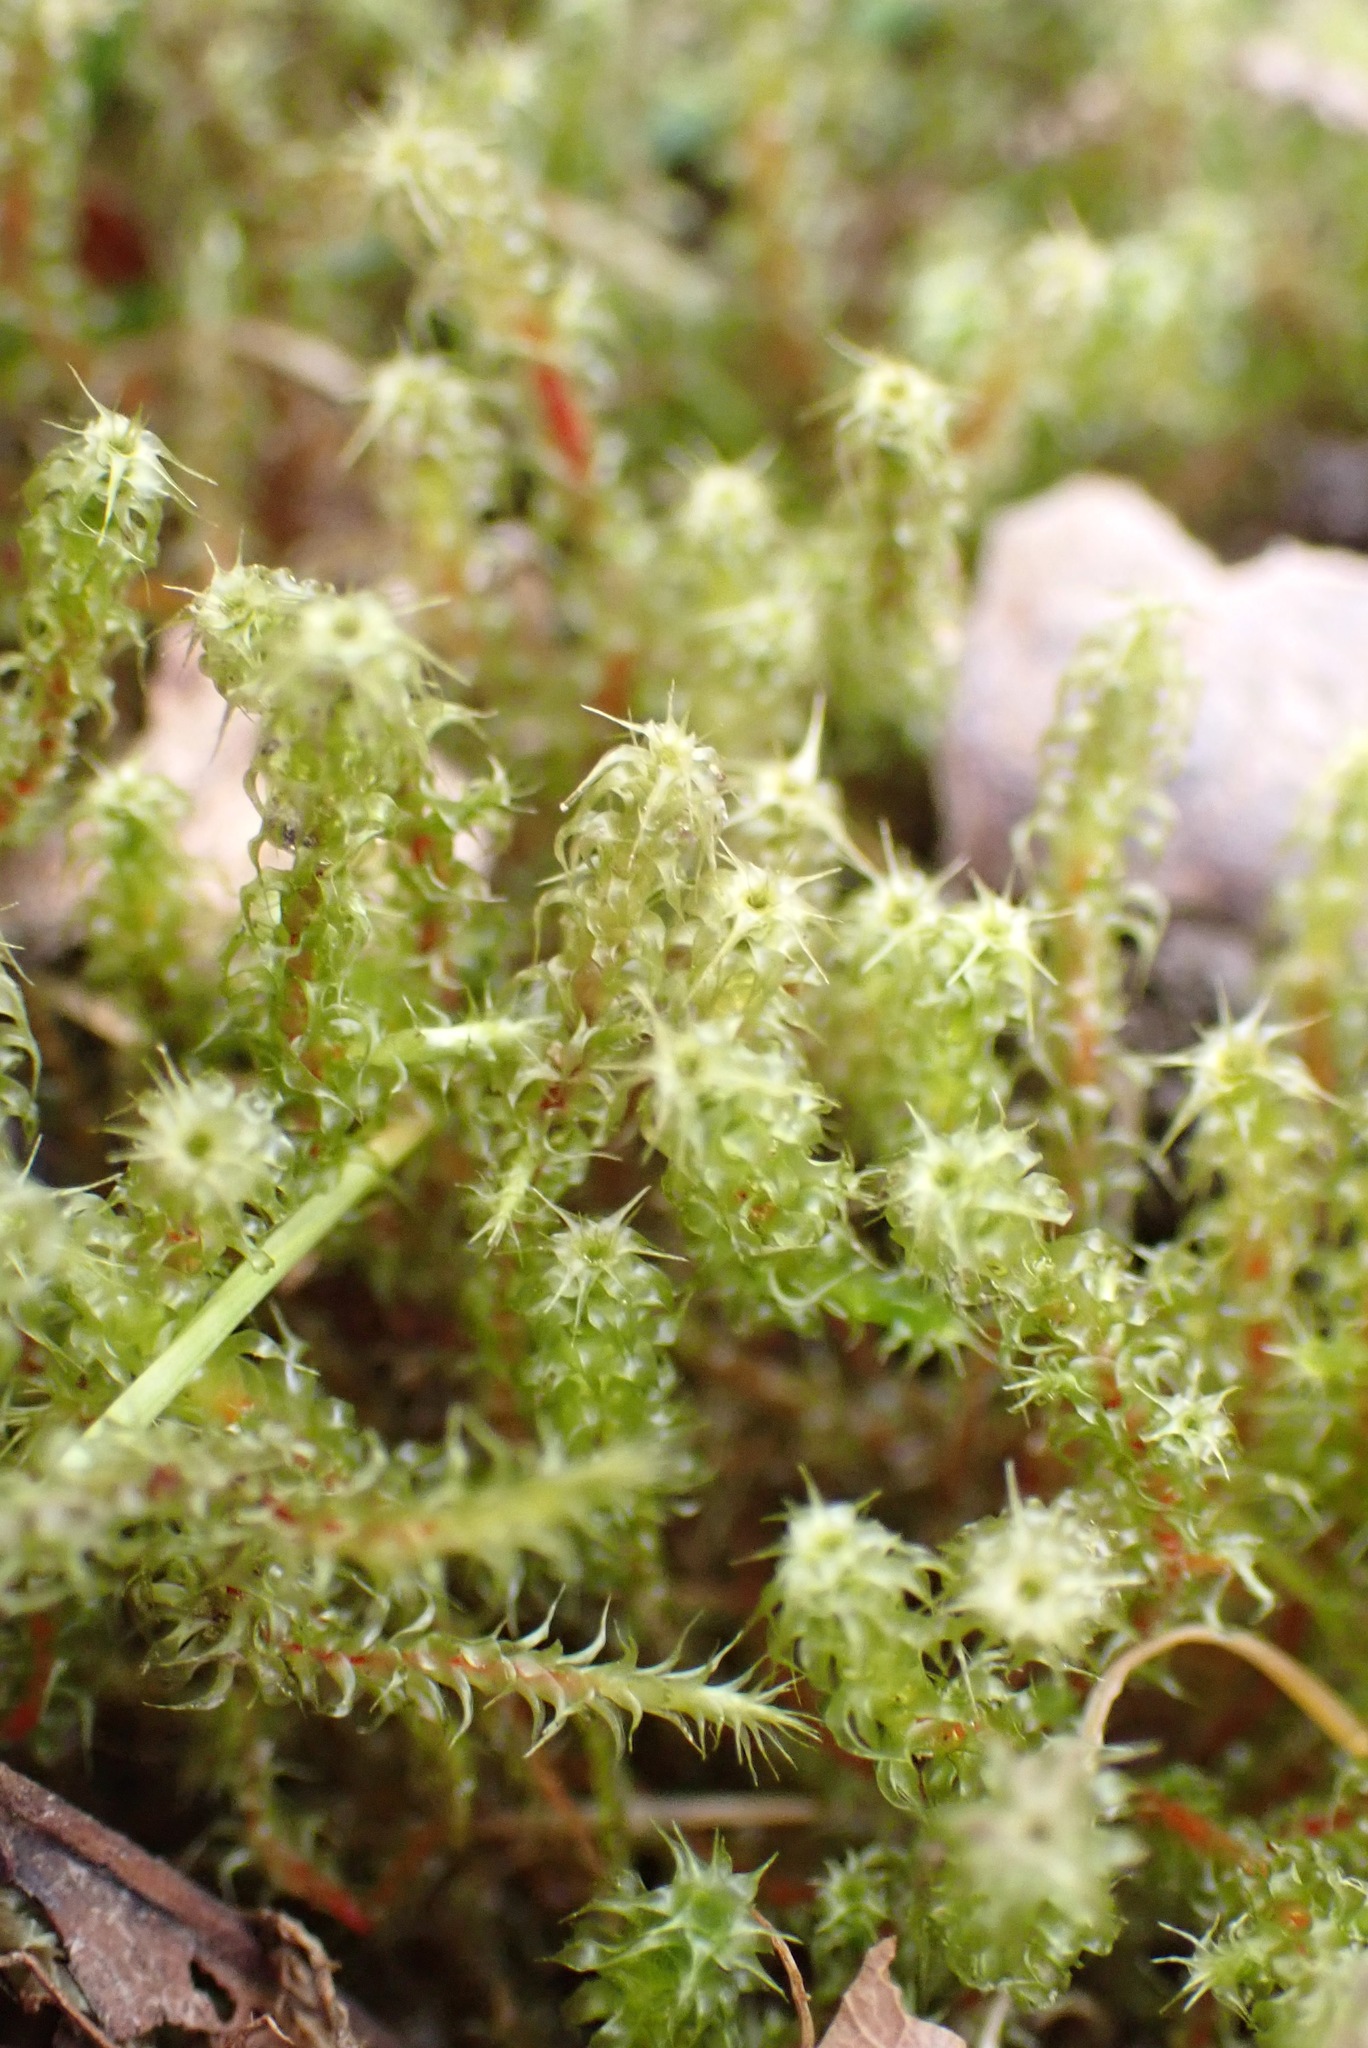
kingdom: Plantae
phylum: Bryophyta
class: Bryopsida
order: Hypnales
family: Hylocomiaceae
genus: Rhytidiadelphus
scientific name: Rhytidiadelphus squarrosus
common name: Springy turf-moss
